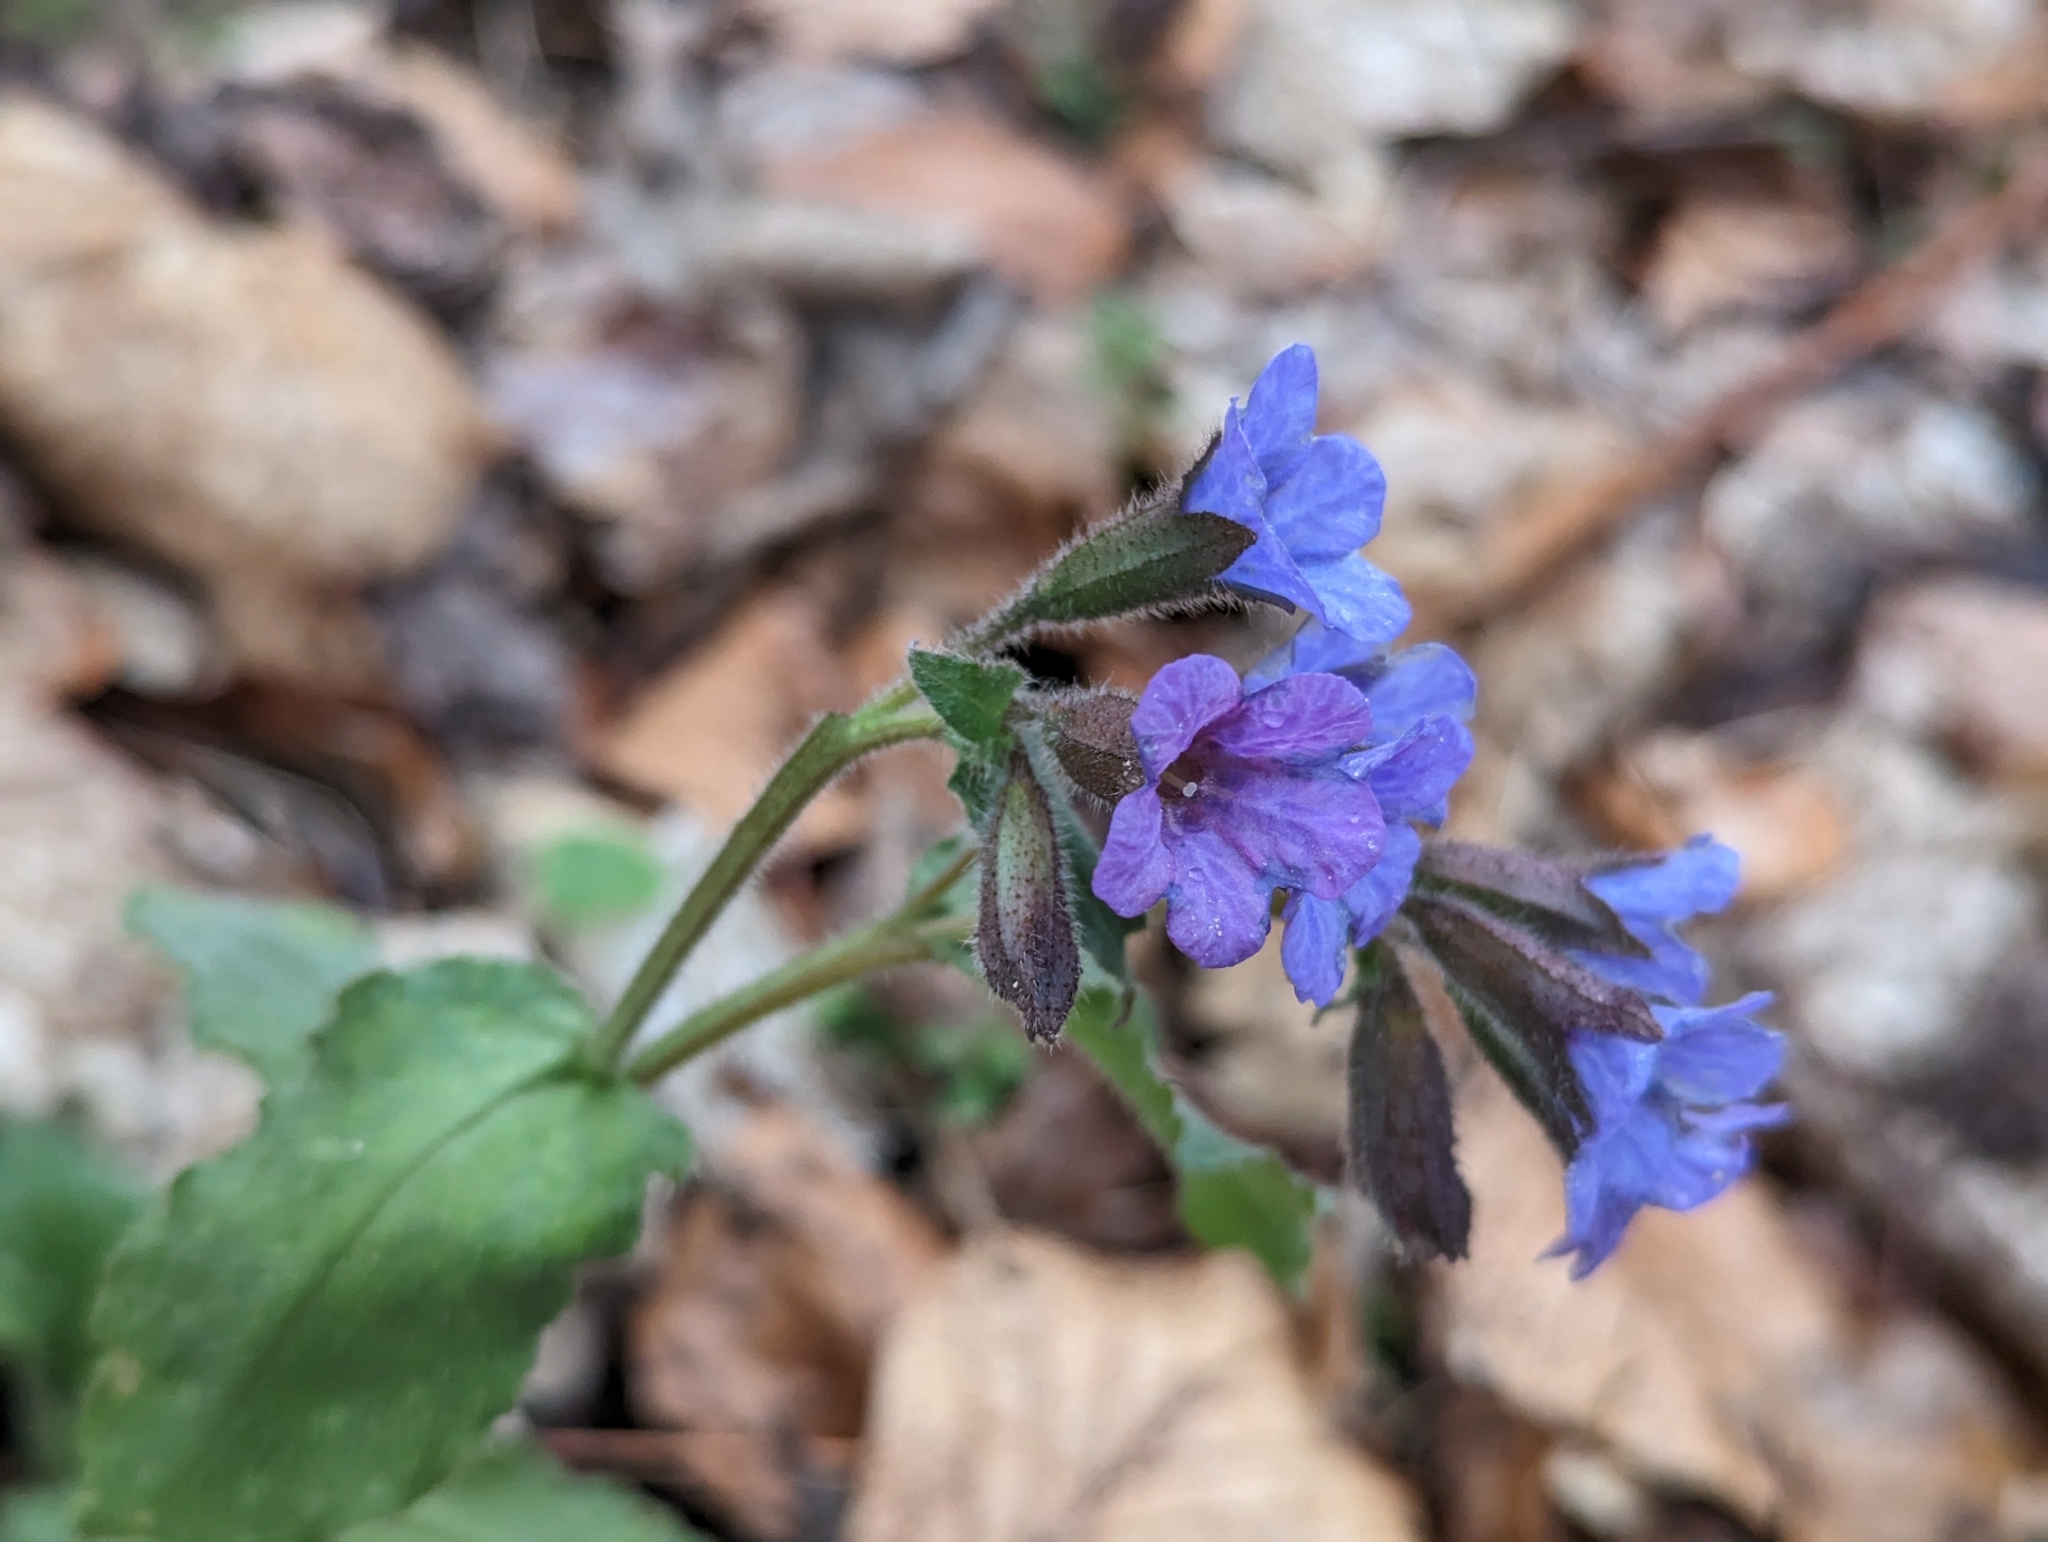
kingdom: Plantae
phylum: Tracheophyta
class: Magnoliopsida
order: Boraginales
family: Boraginaceae
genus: Pulmonaria
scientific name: Pulmonaria officinalis
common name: Lungwort
